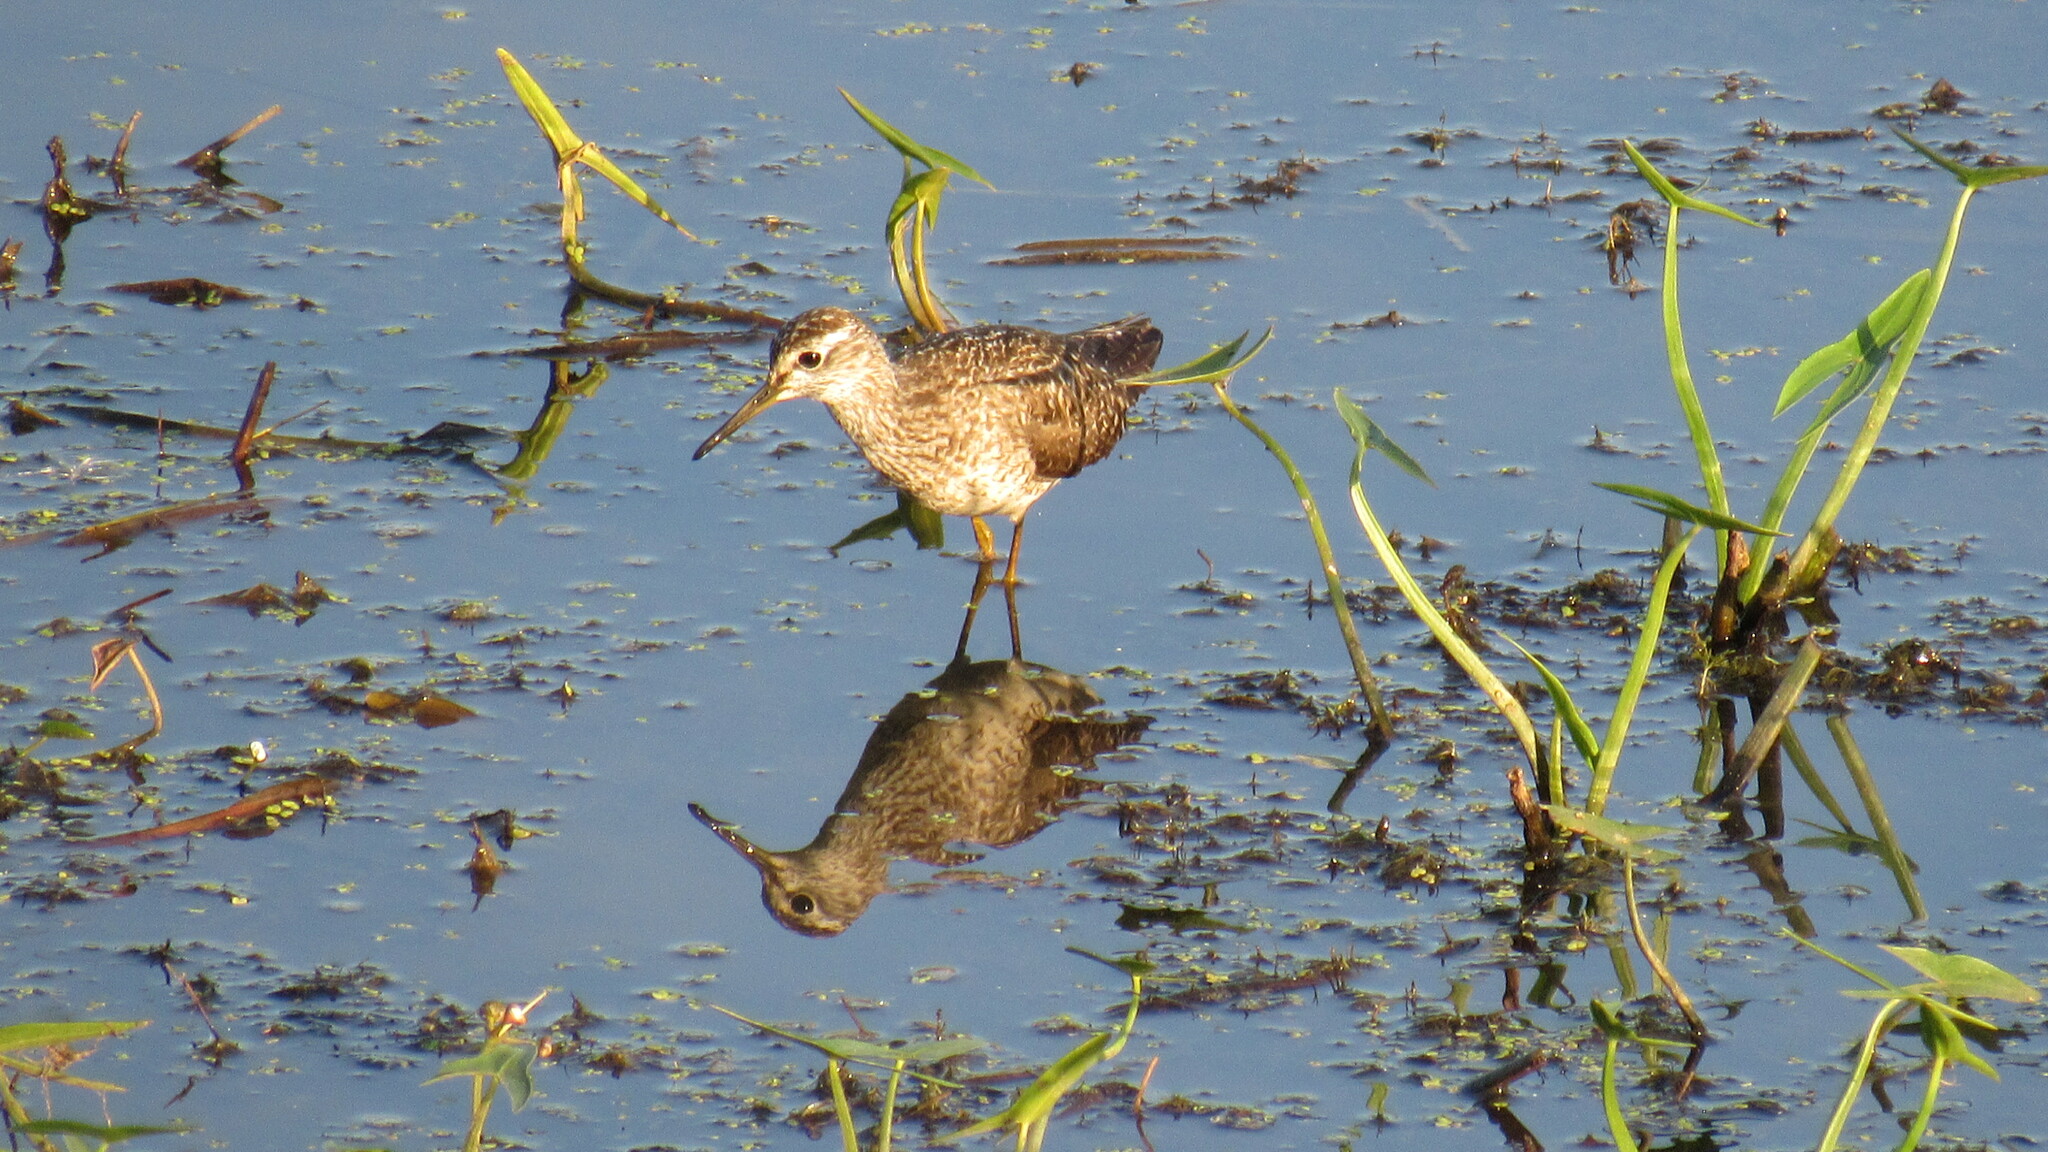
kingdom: Animalia
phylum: Chordata
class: Aves
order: Charadriiformes
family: Scolopacidae
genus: Tringa
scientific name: Tringa glareola
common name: Wood sandpiper
